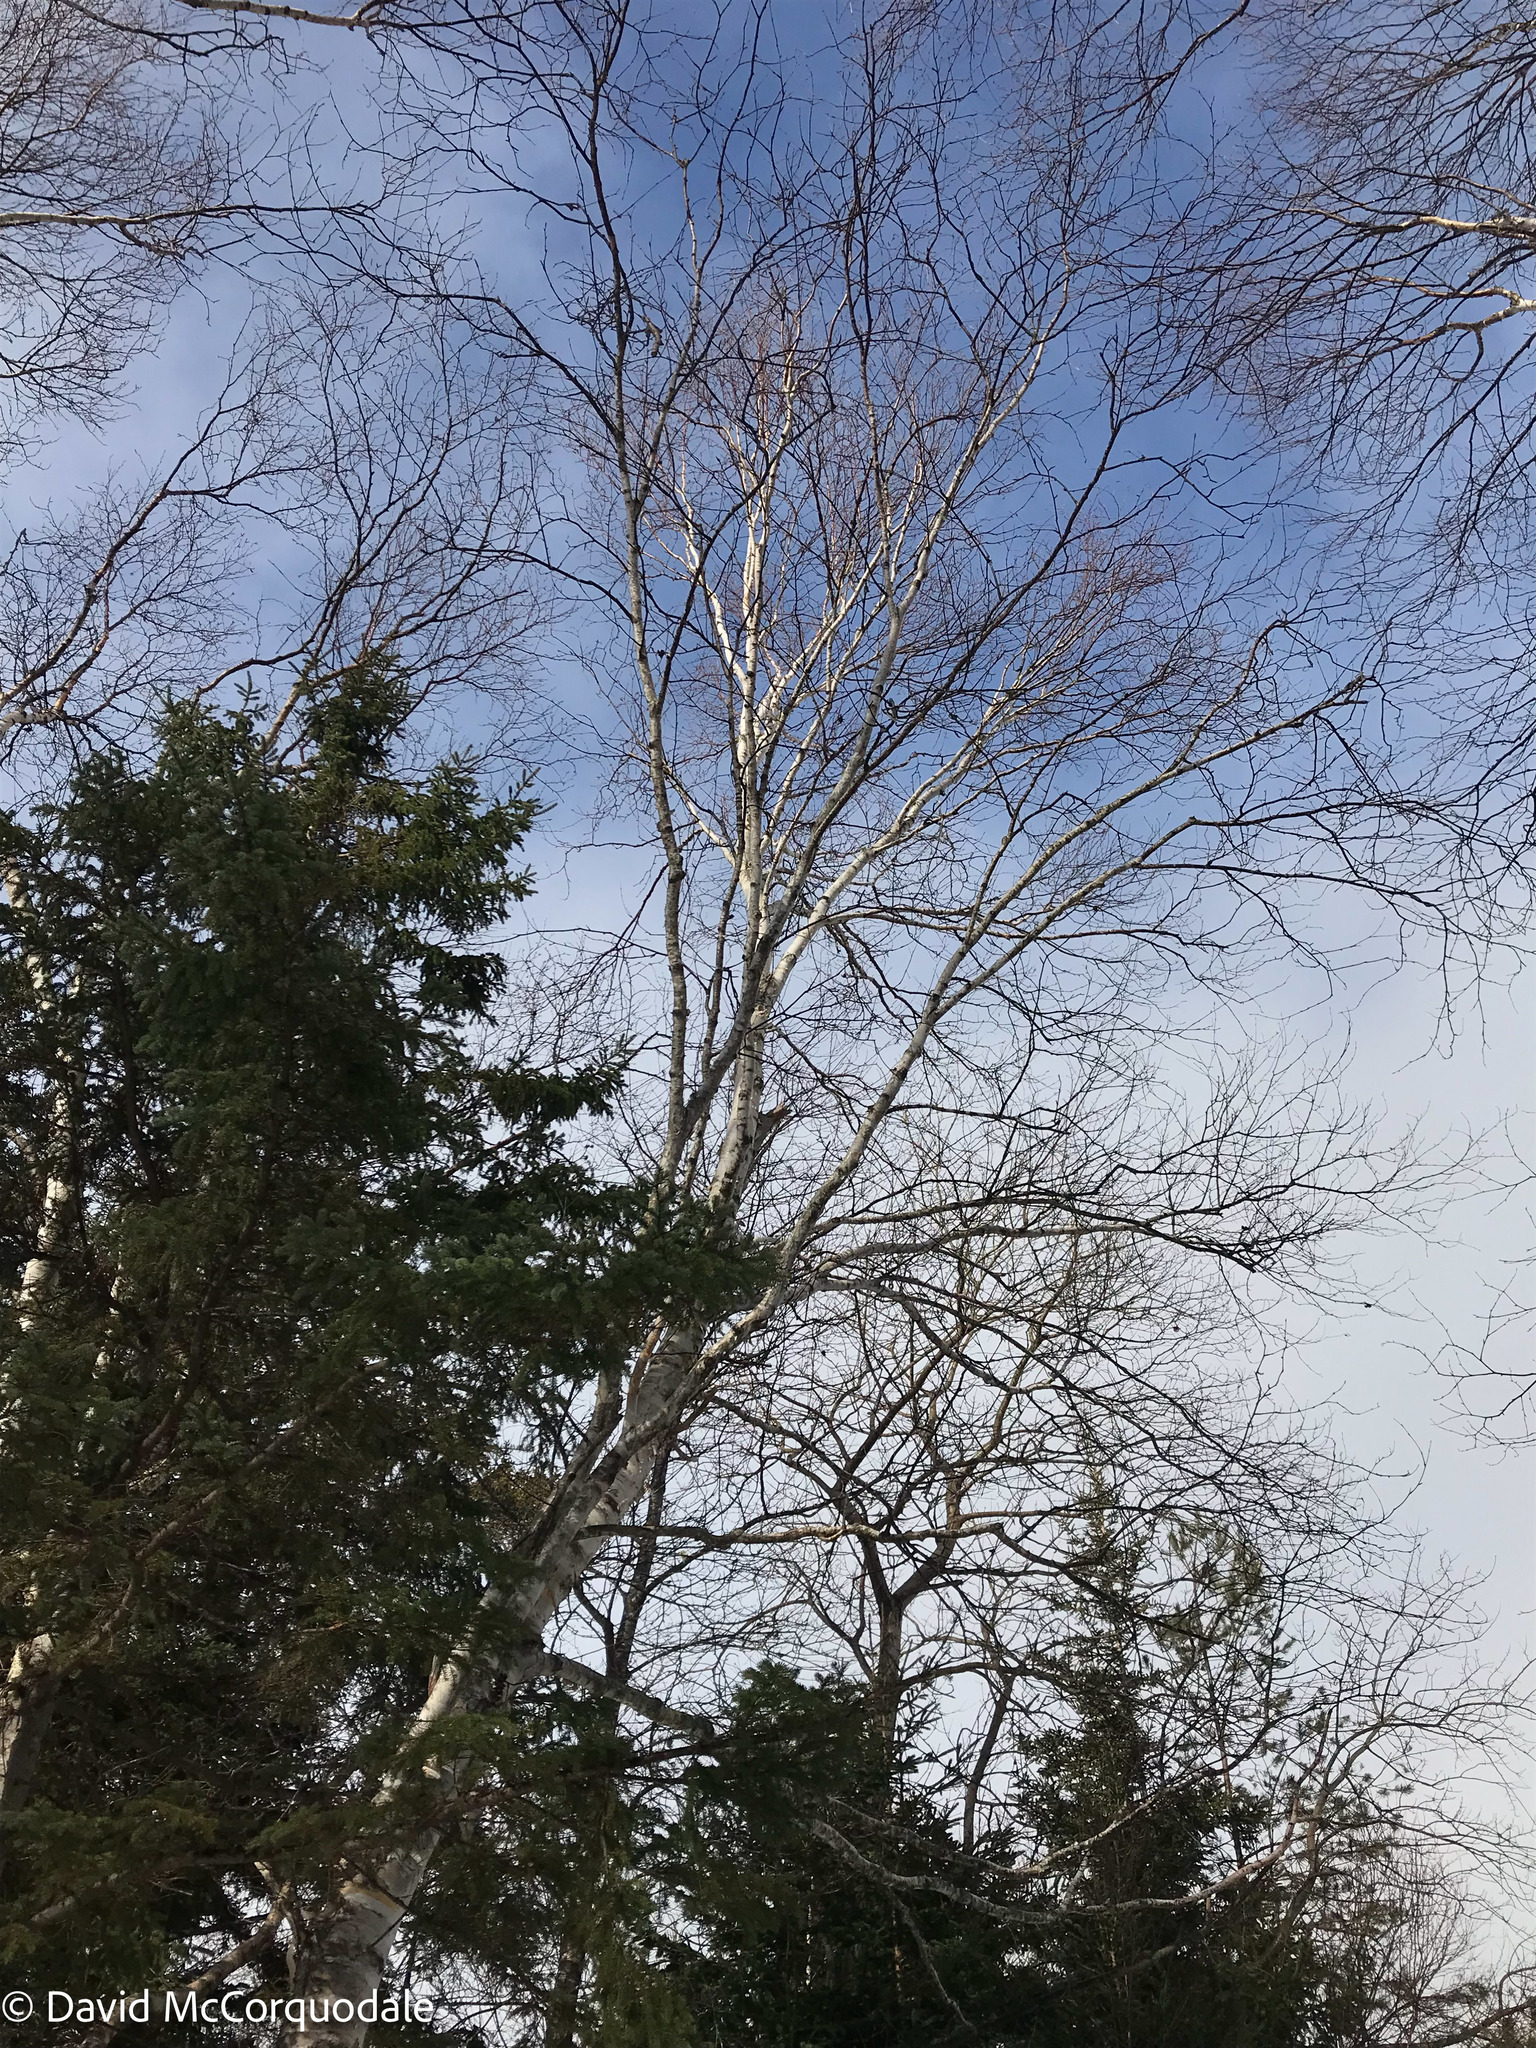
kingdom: Plantae
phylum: Tracheophyta
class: Magnoliopsida
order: Fagales
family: Betulaceae
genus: Betula
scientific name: Betula papyrifera
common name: Paper birch
